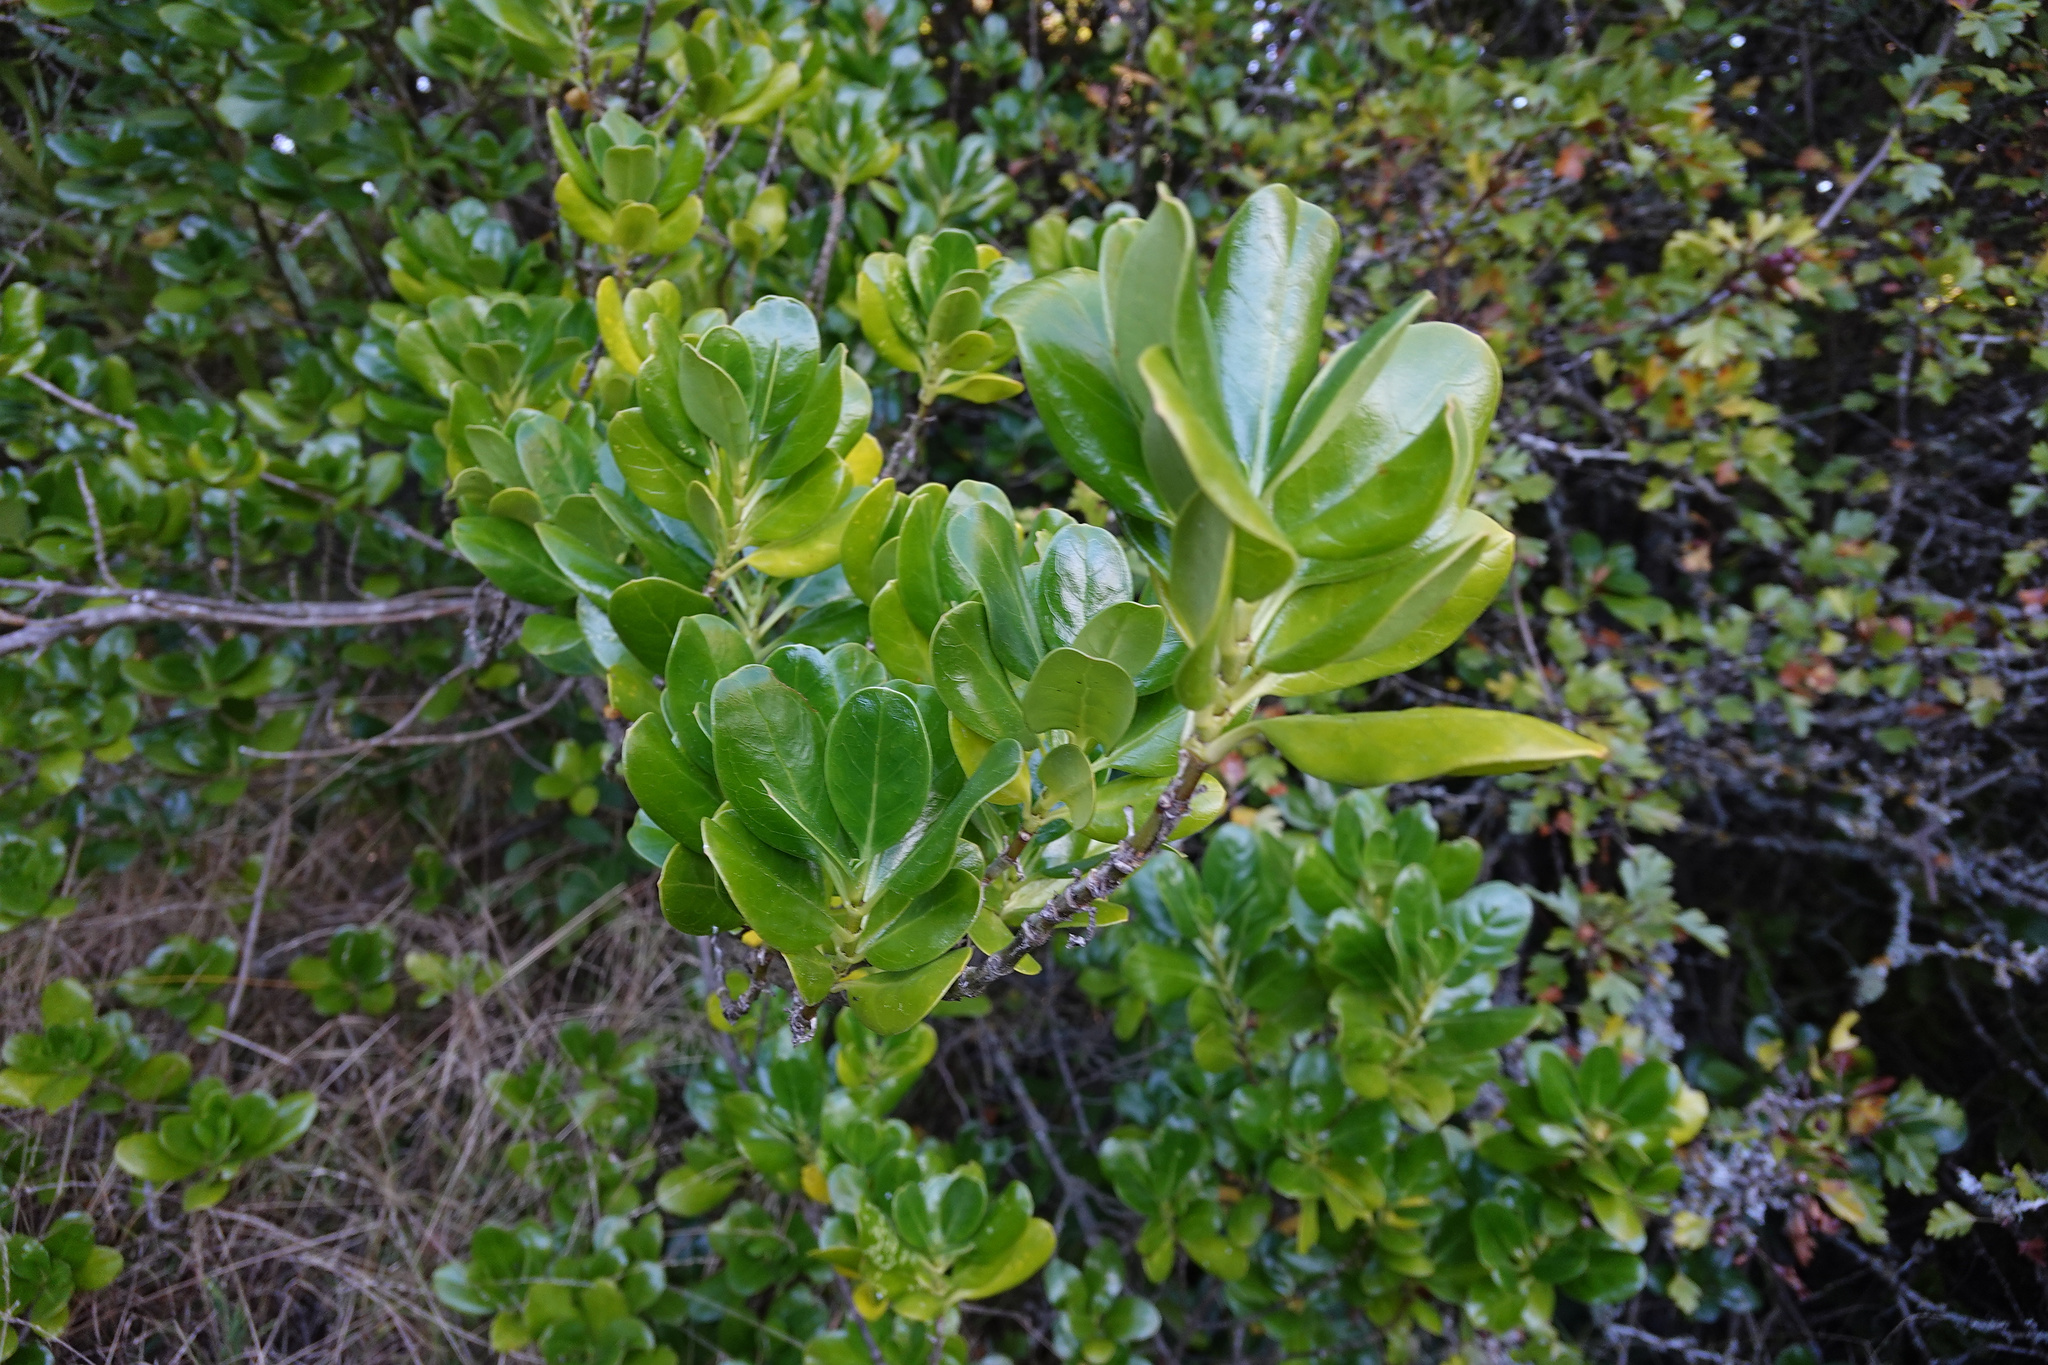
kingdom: Plantae
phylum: Tracheophyta
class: Magnoliopsida
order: Gentianales
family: Rubiaceae
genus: Coprosma
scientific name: Coprosma repens
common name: Tree bedstraw
